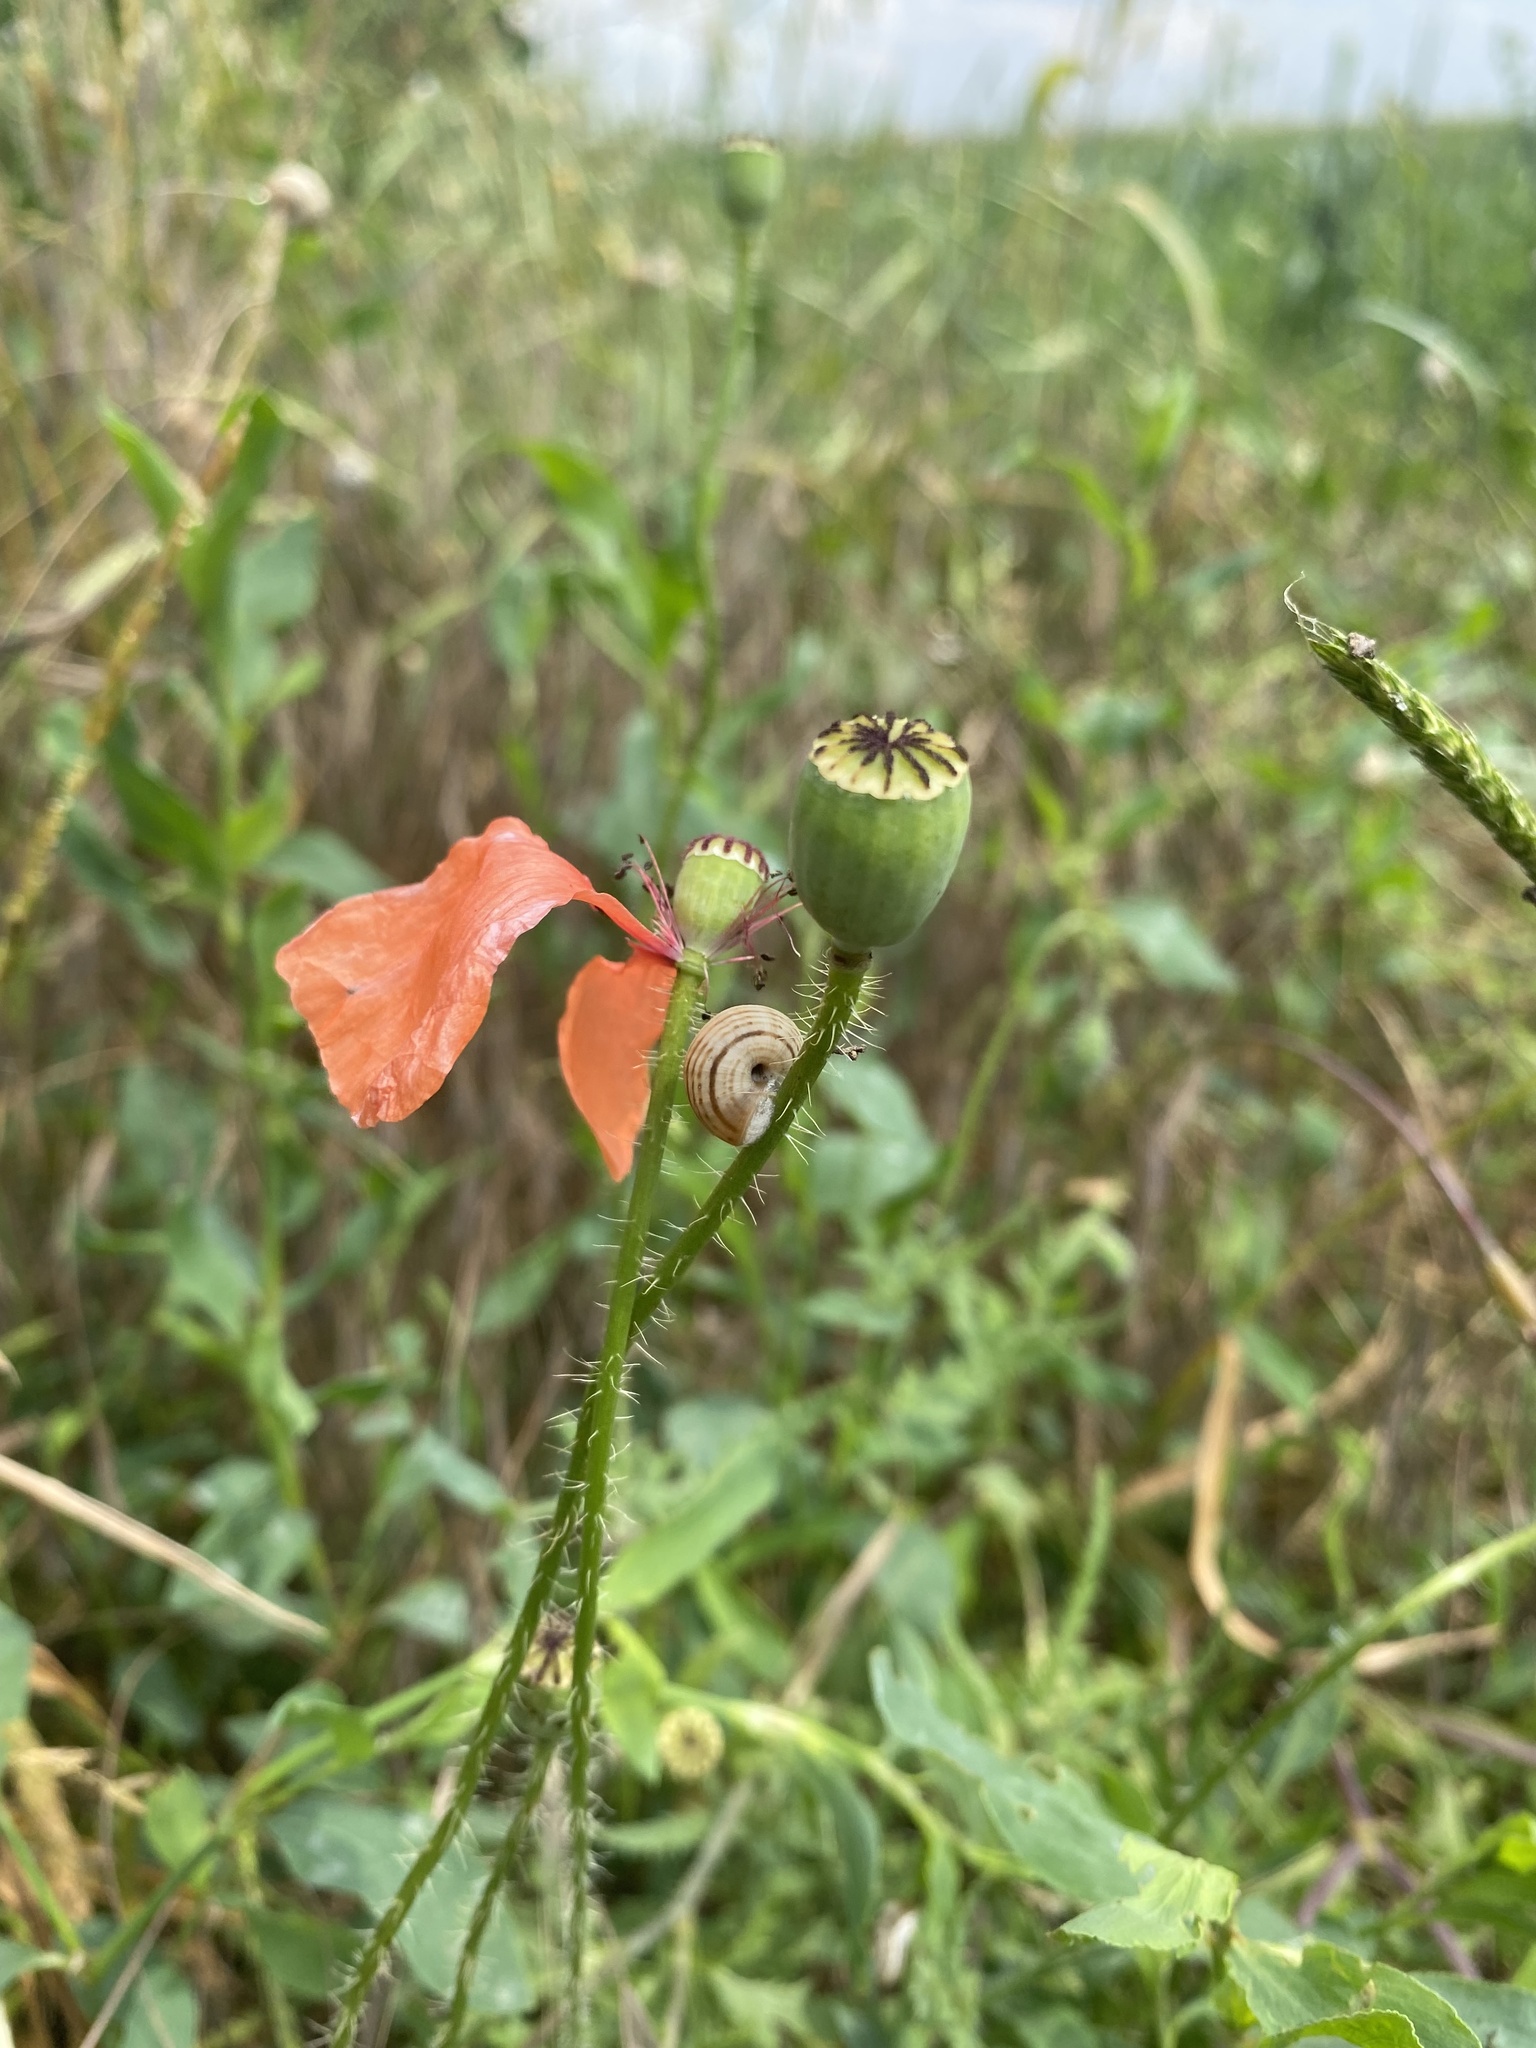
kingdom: Plantae
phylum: Tracheophyta
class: Magnoliopsida
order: Ranunculales
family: Papaveraceae
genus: Papaver
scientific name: Papaver rhoeas
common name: Corn poppy
